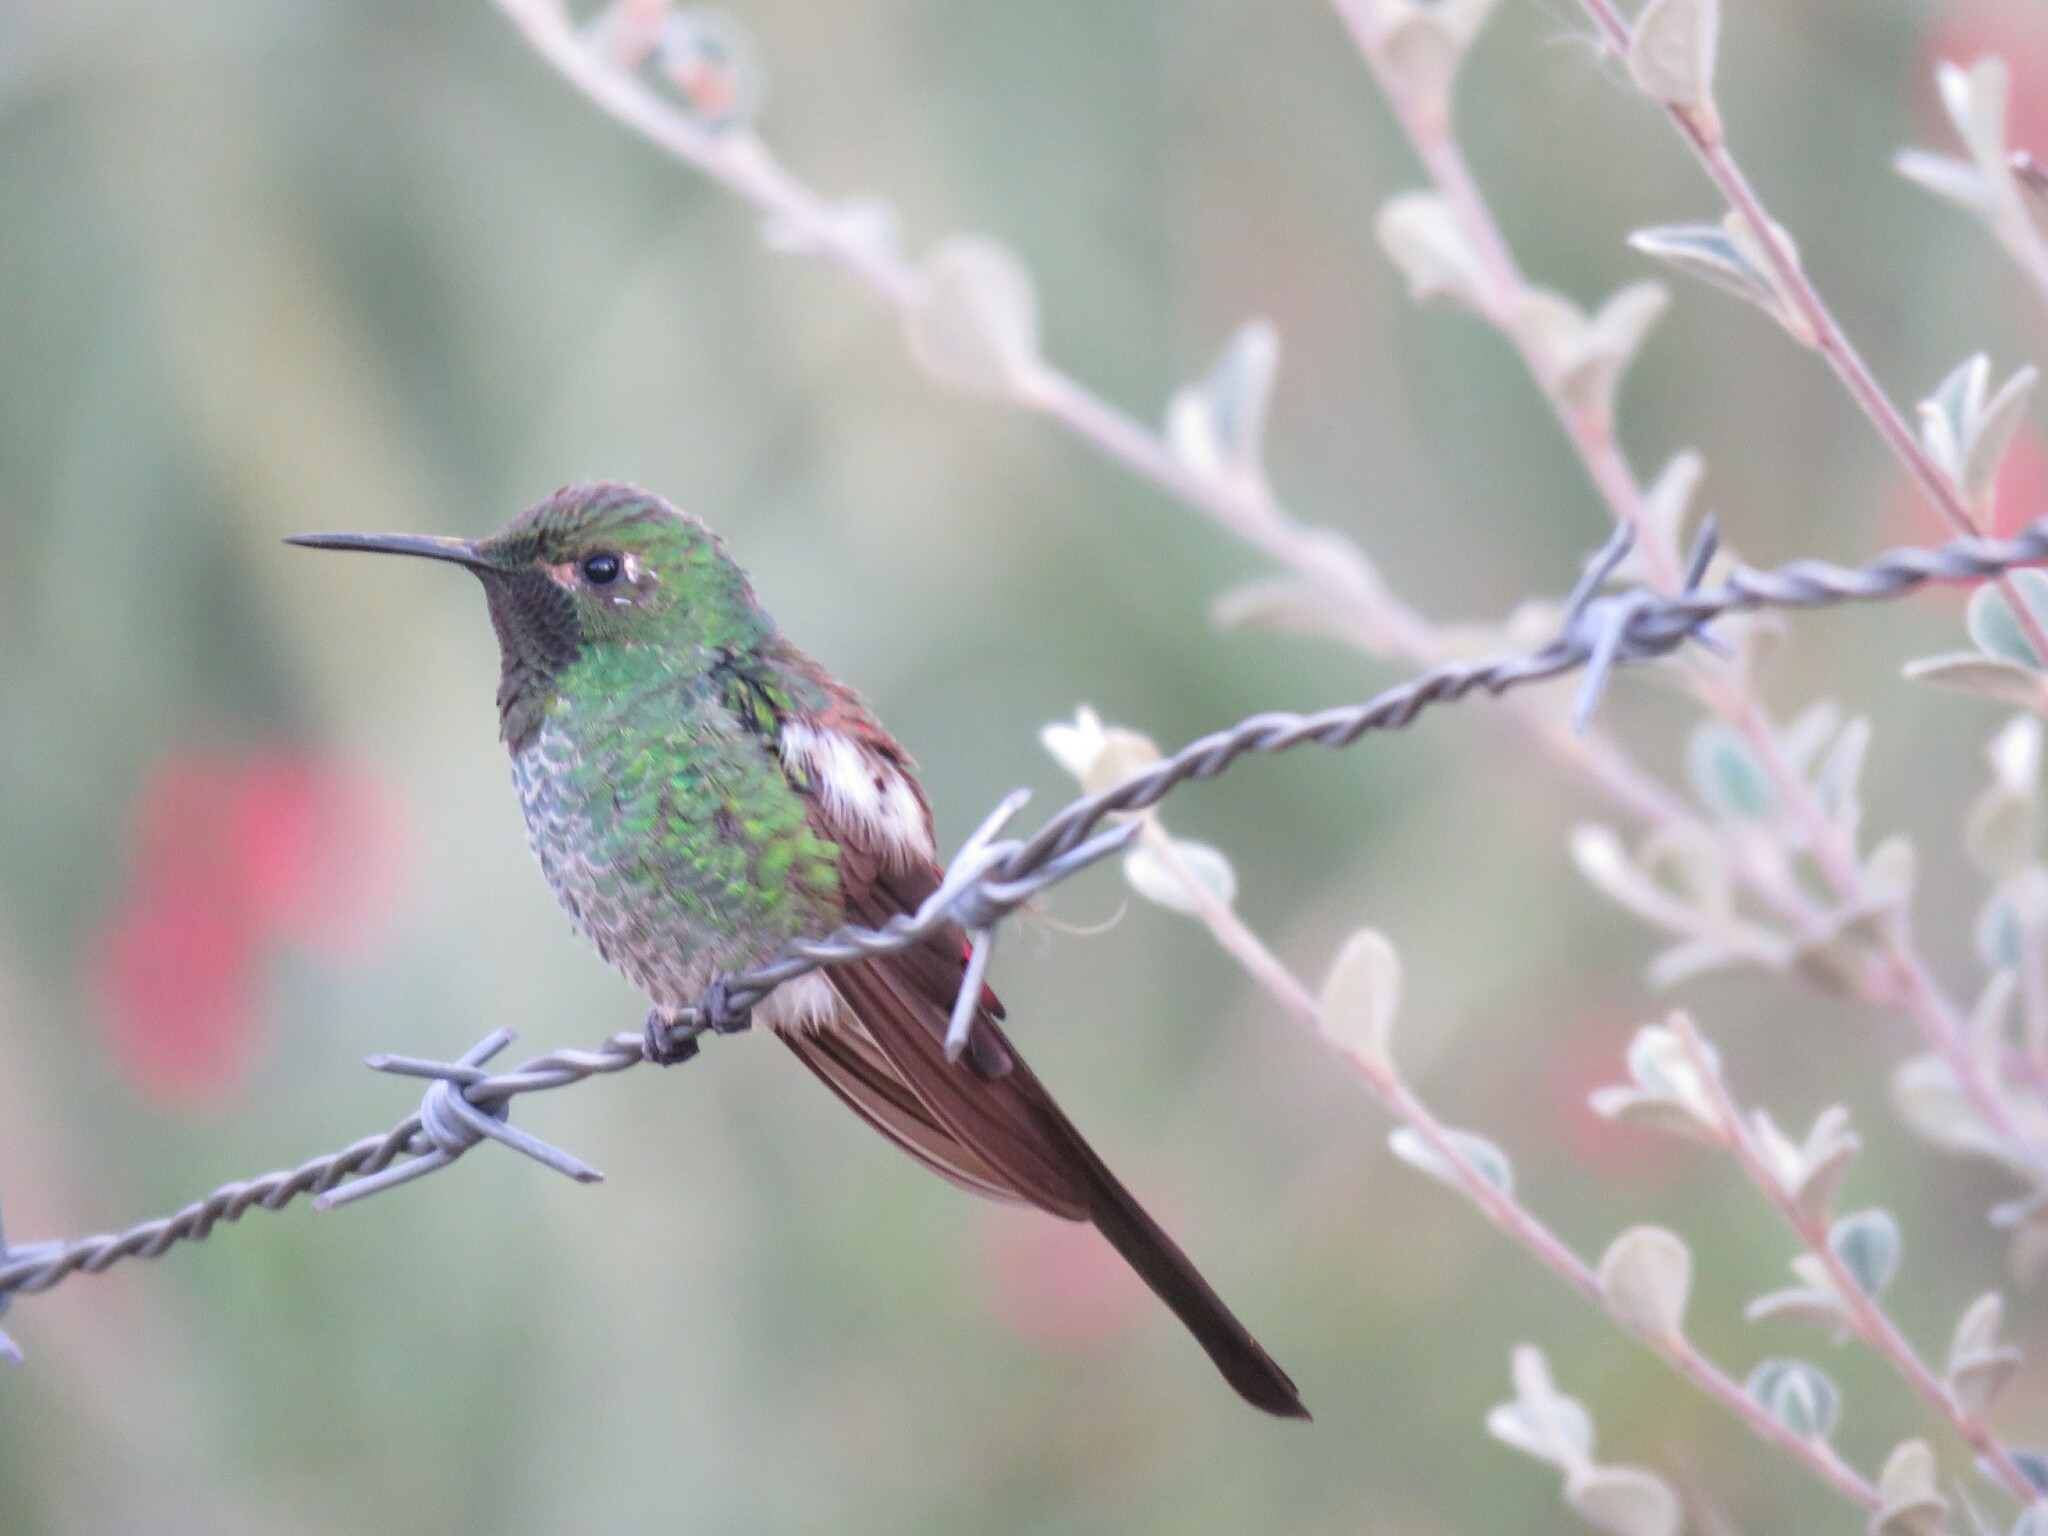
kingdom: Animalia
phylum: Chordata
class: Aves
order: Apodiformes
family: Trochilidae
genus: Sappho
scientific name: Sappho sparganurus
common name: Red-tailed comet
